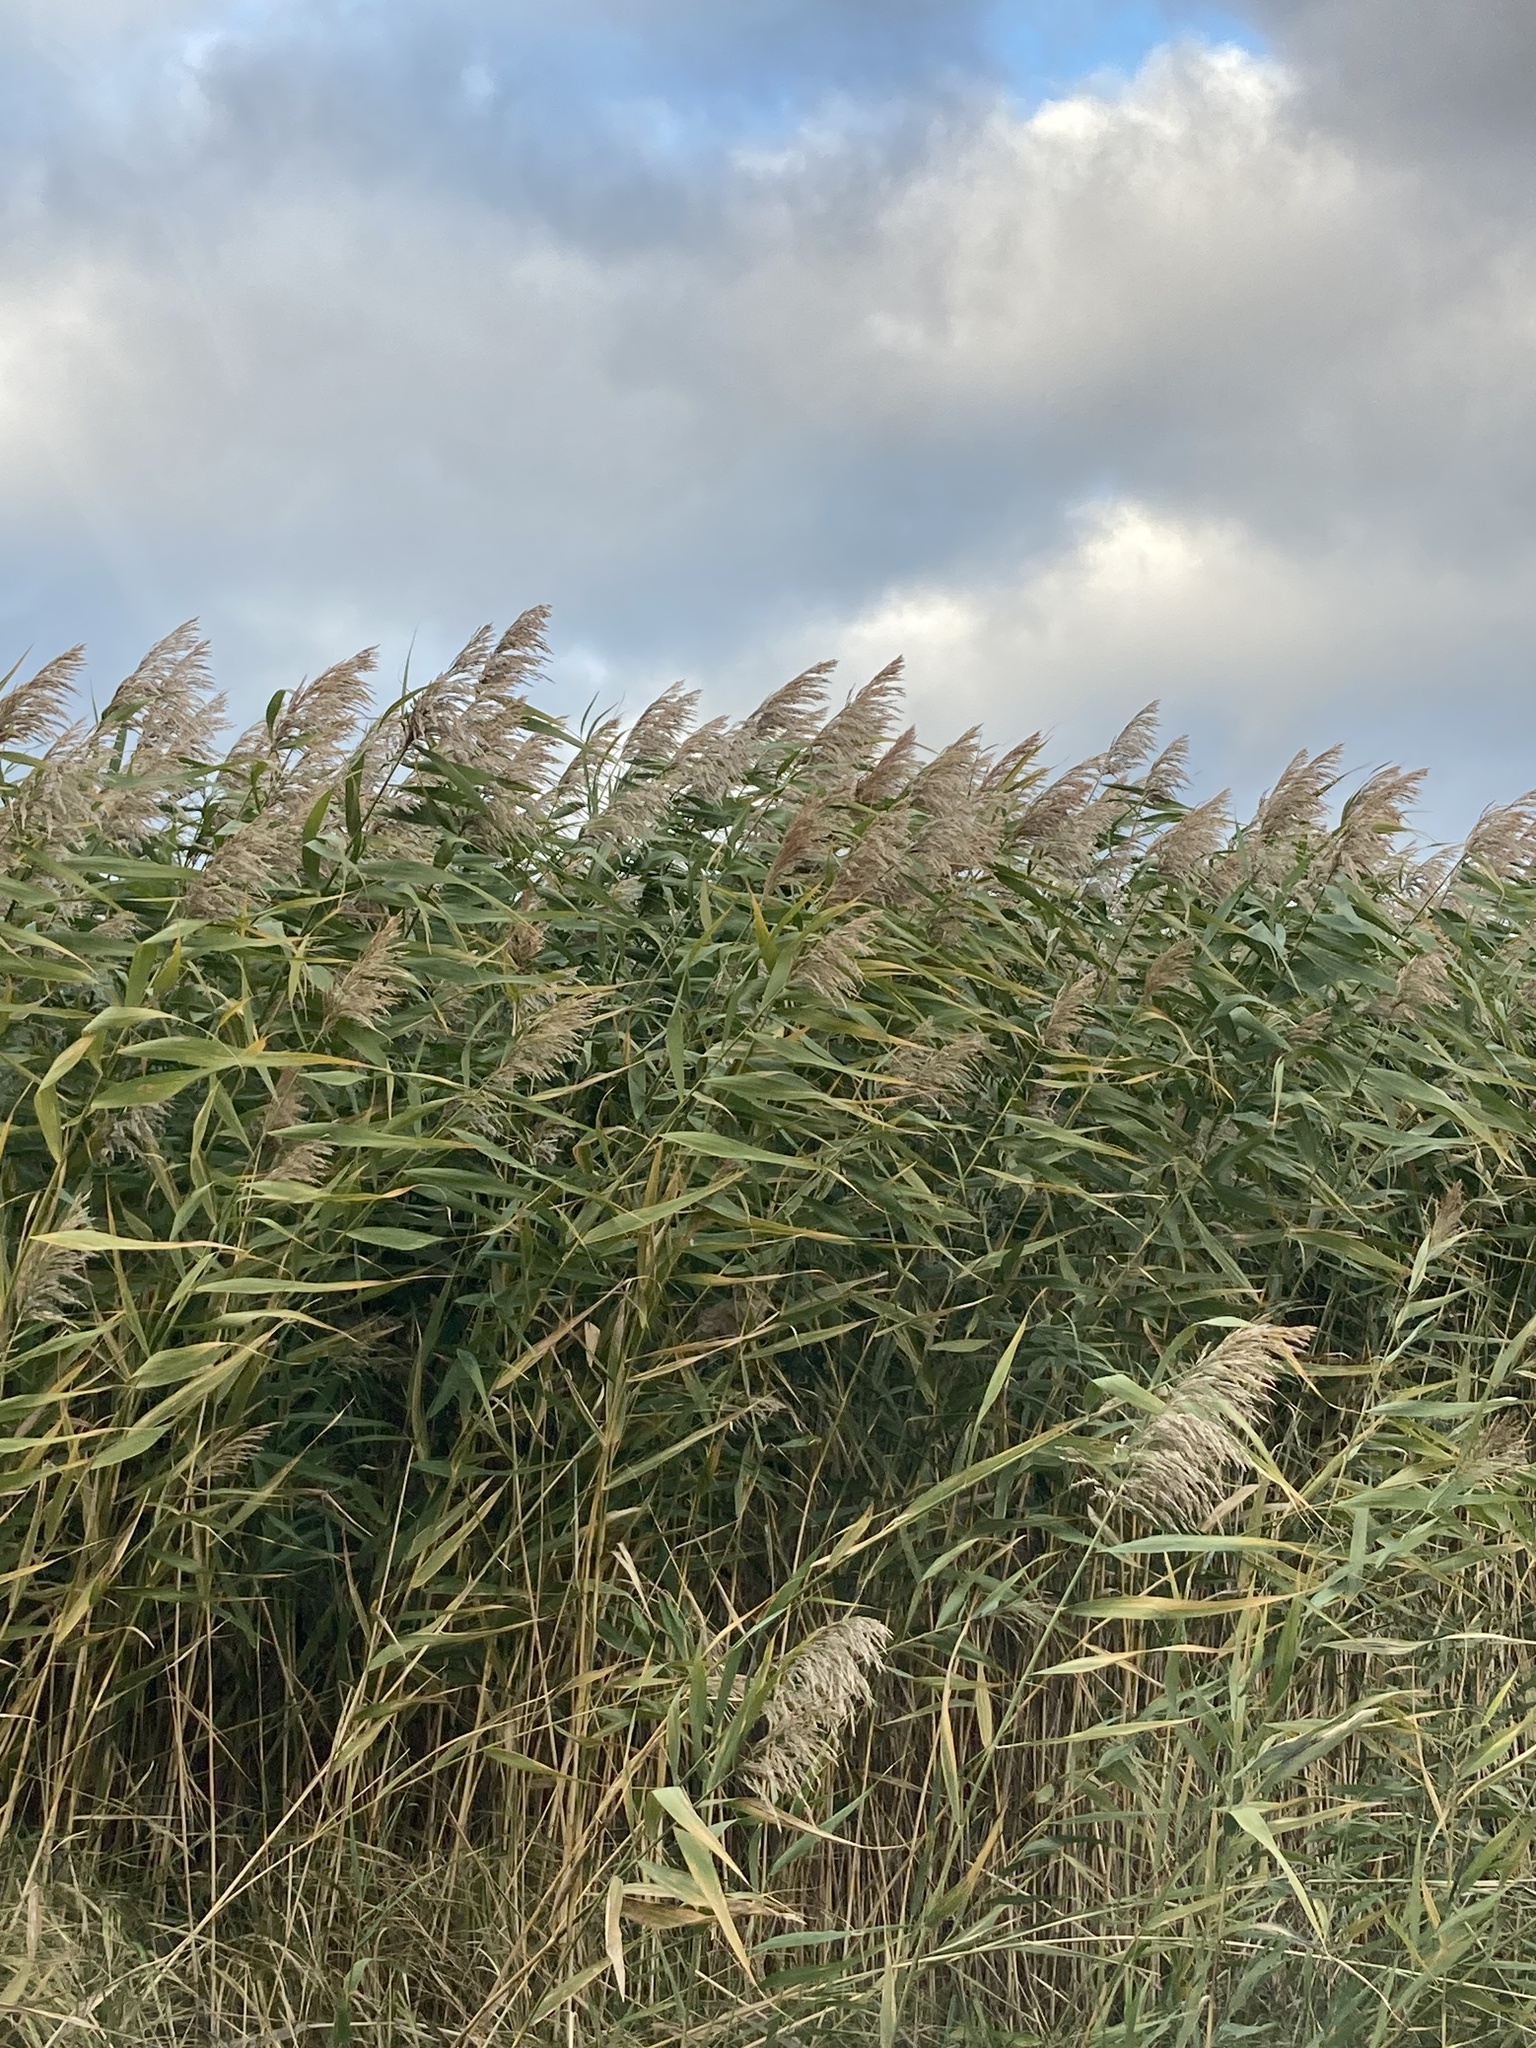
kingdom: Plantae
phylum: Tracheophyta
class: Liliopsida
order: Poales
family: Poaceae
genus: Phragmites
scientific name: Phragmites australis
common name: Common reed
